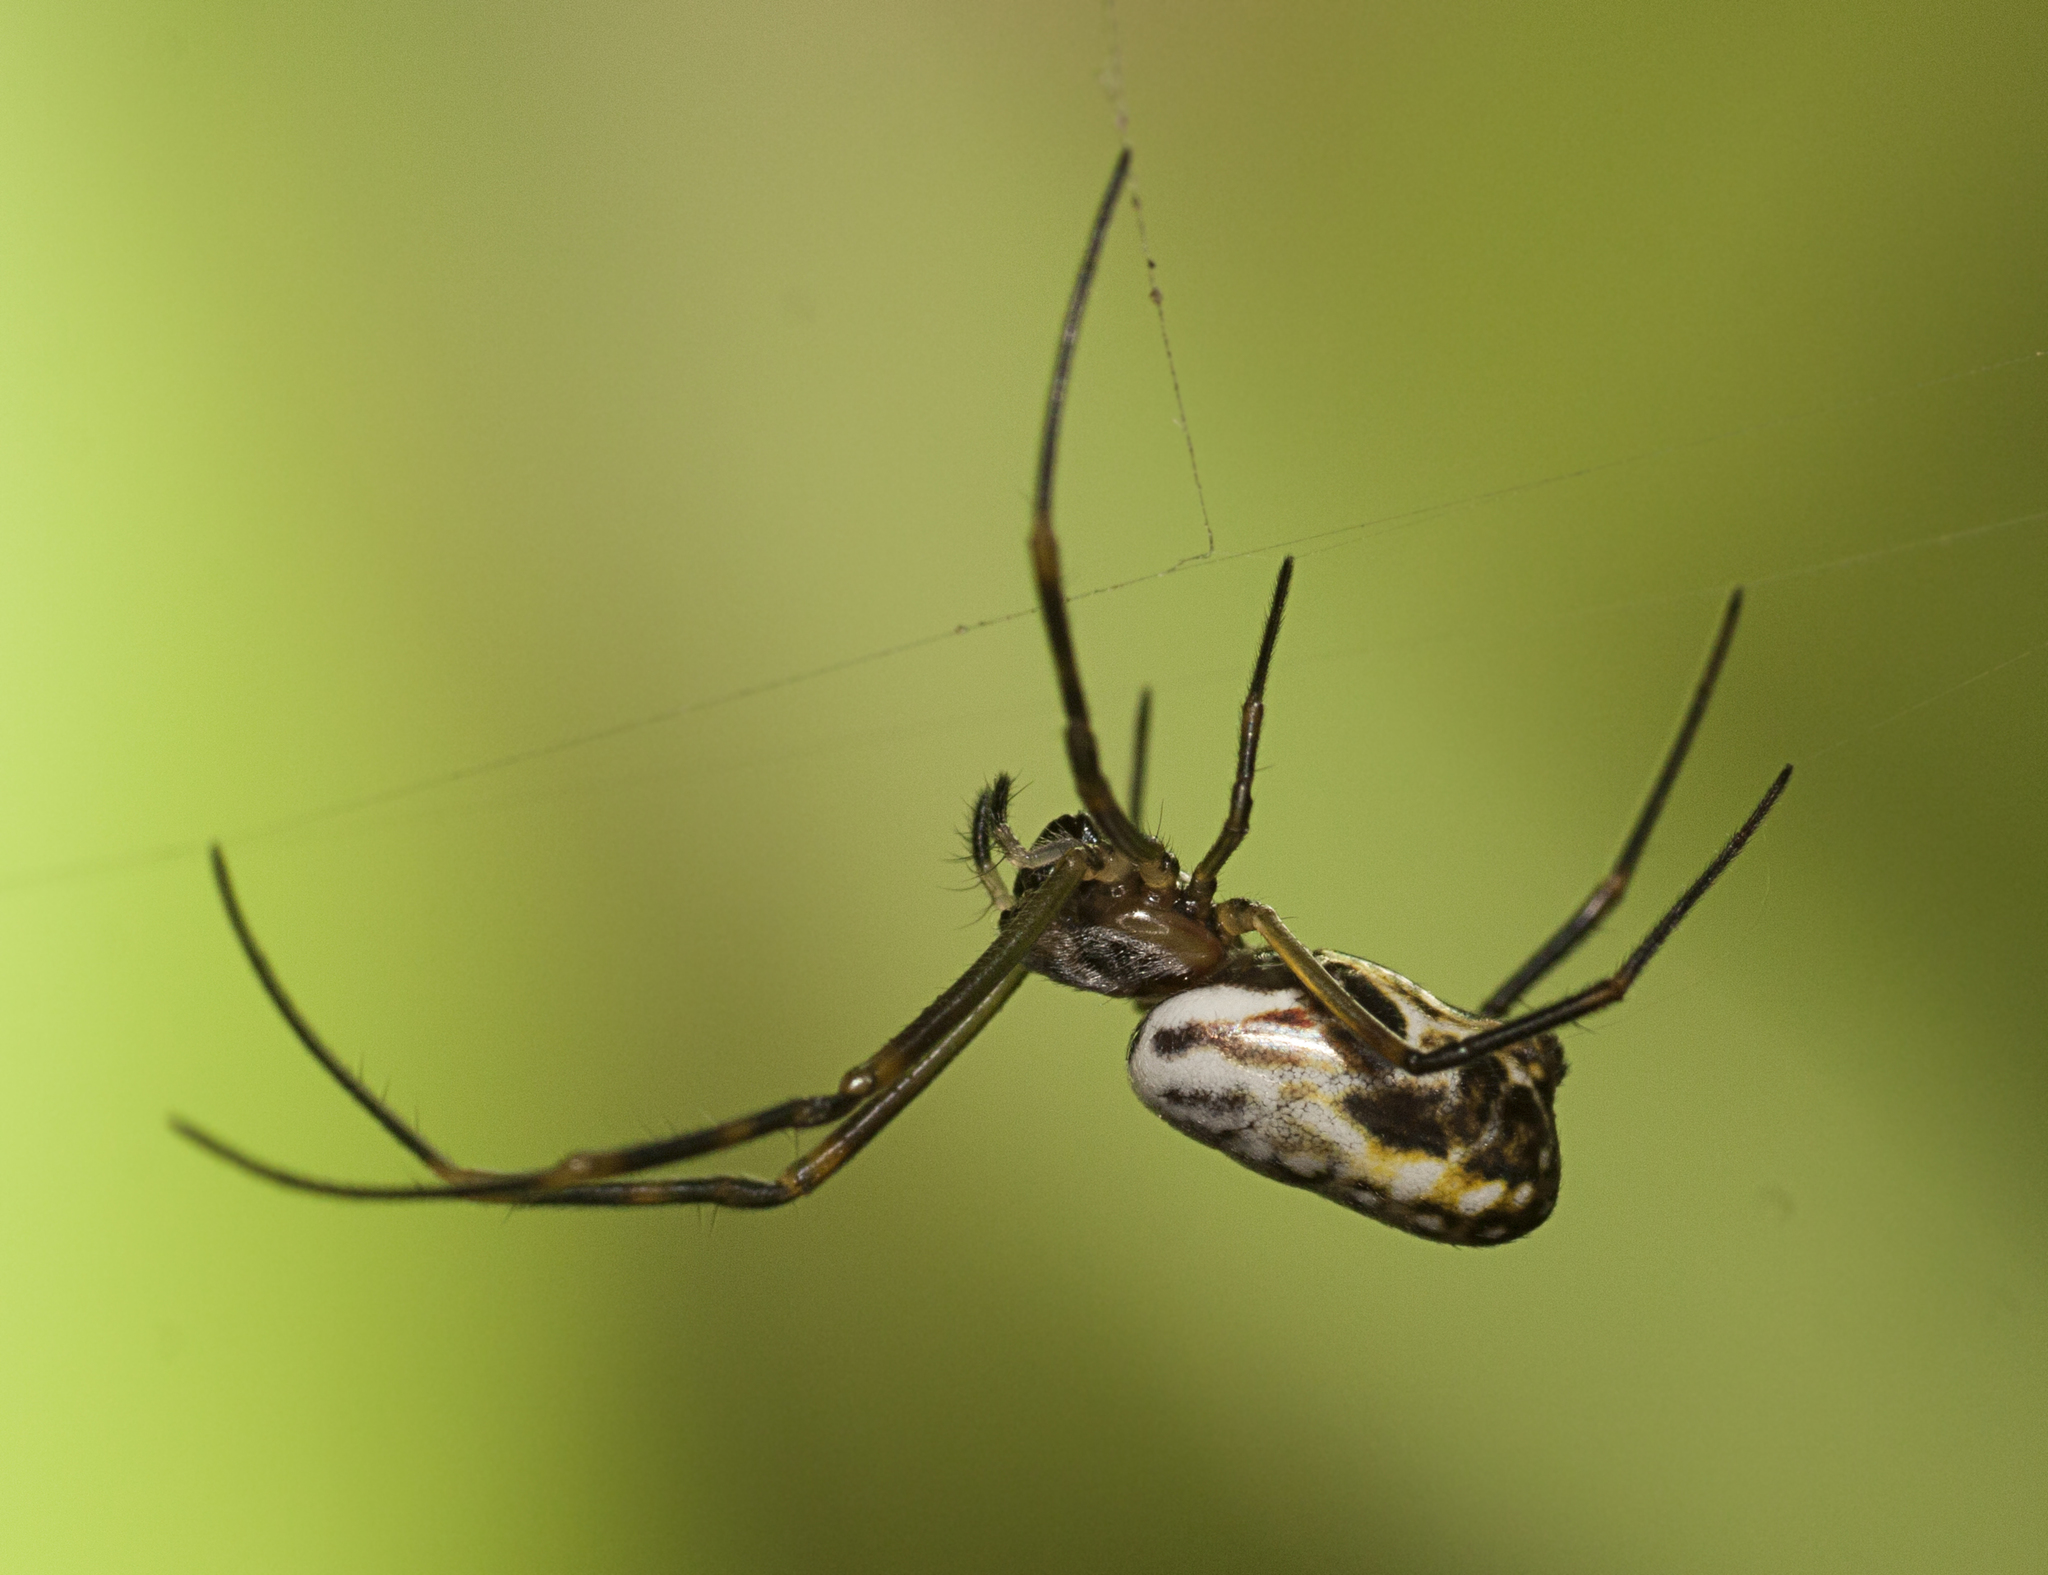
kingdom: Animalia
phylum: Arthropoda
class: Arachnida
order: Araneae
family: Araneidae
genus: Trichonephila
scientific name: Trichonephila plumipes
